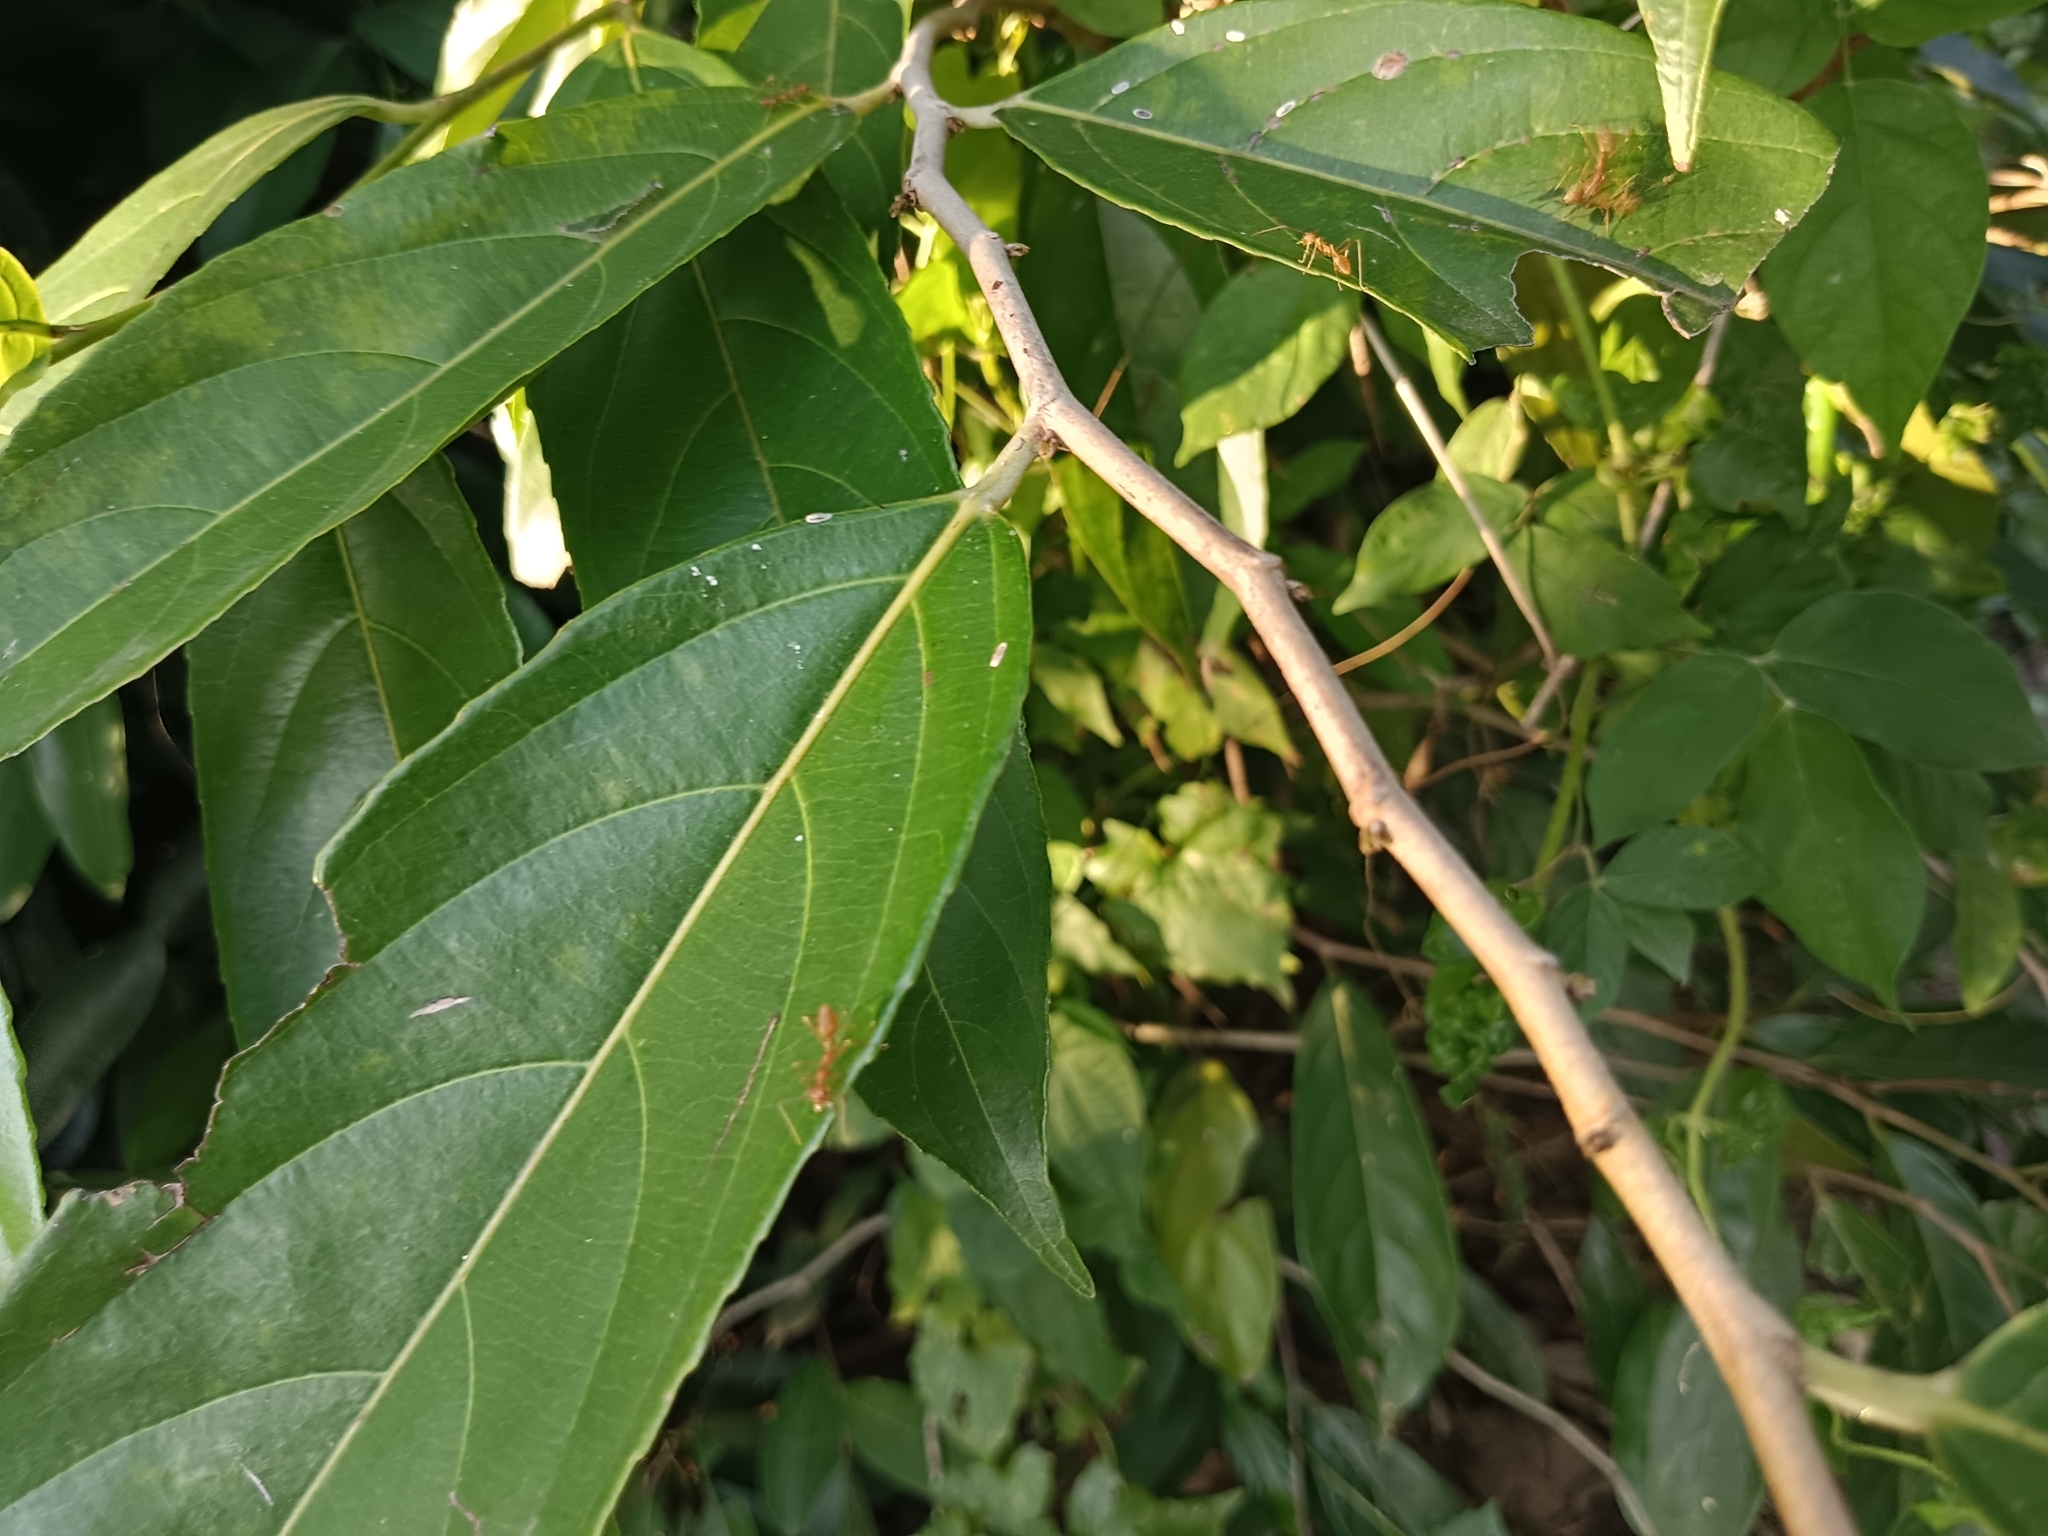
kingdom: Animalia
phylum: Arthropoda
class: Insecta
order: Hymenoptera
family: Formicidae
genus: Oecophylla
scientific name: Oecophylla smaragdina
